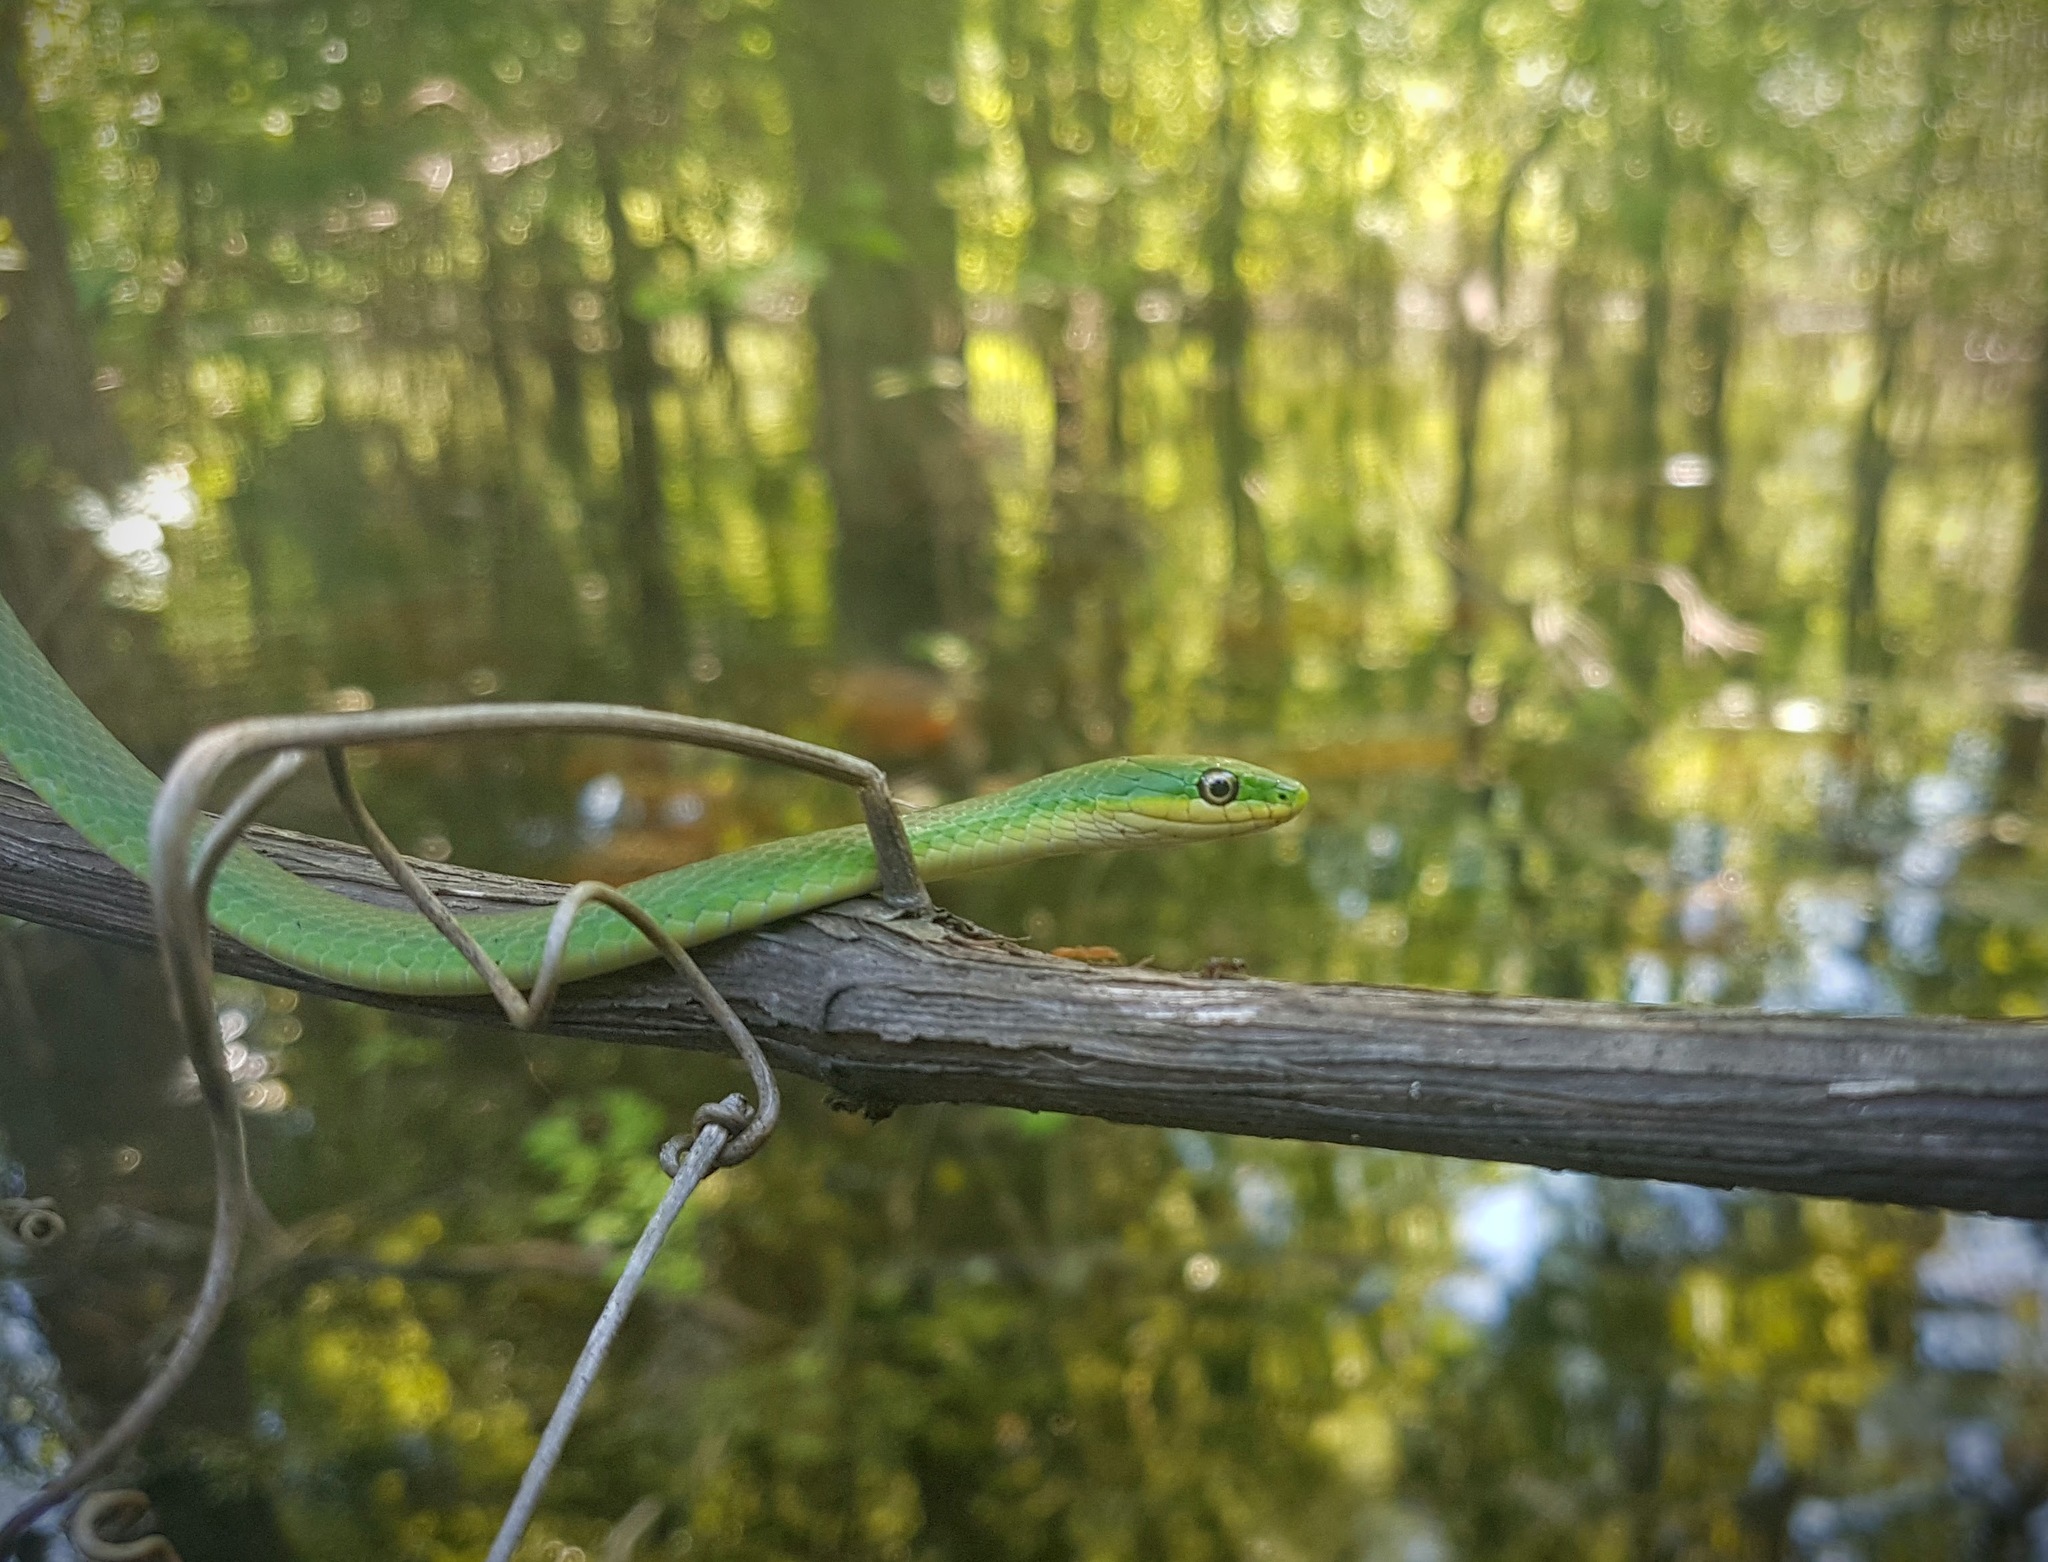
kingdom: Animalia
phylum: Chordata
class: Squamata
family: Colubridae
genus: Opheodrys
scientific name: Opheodrys aestivus
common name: Rough greensnake
